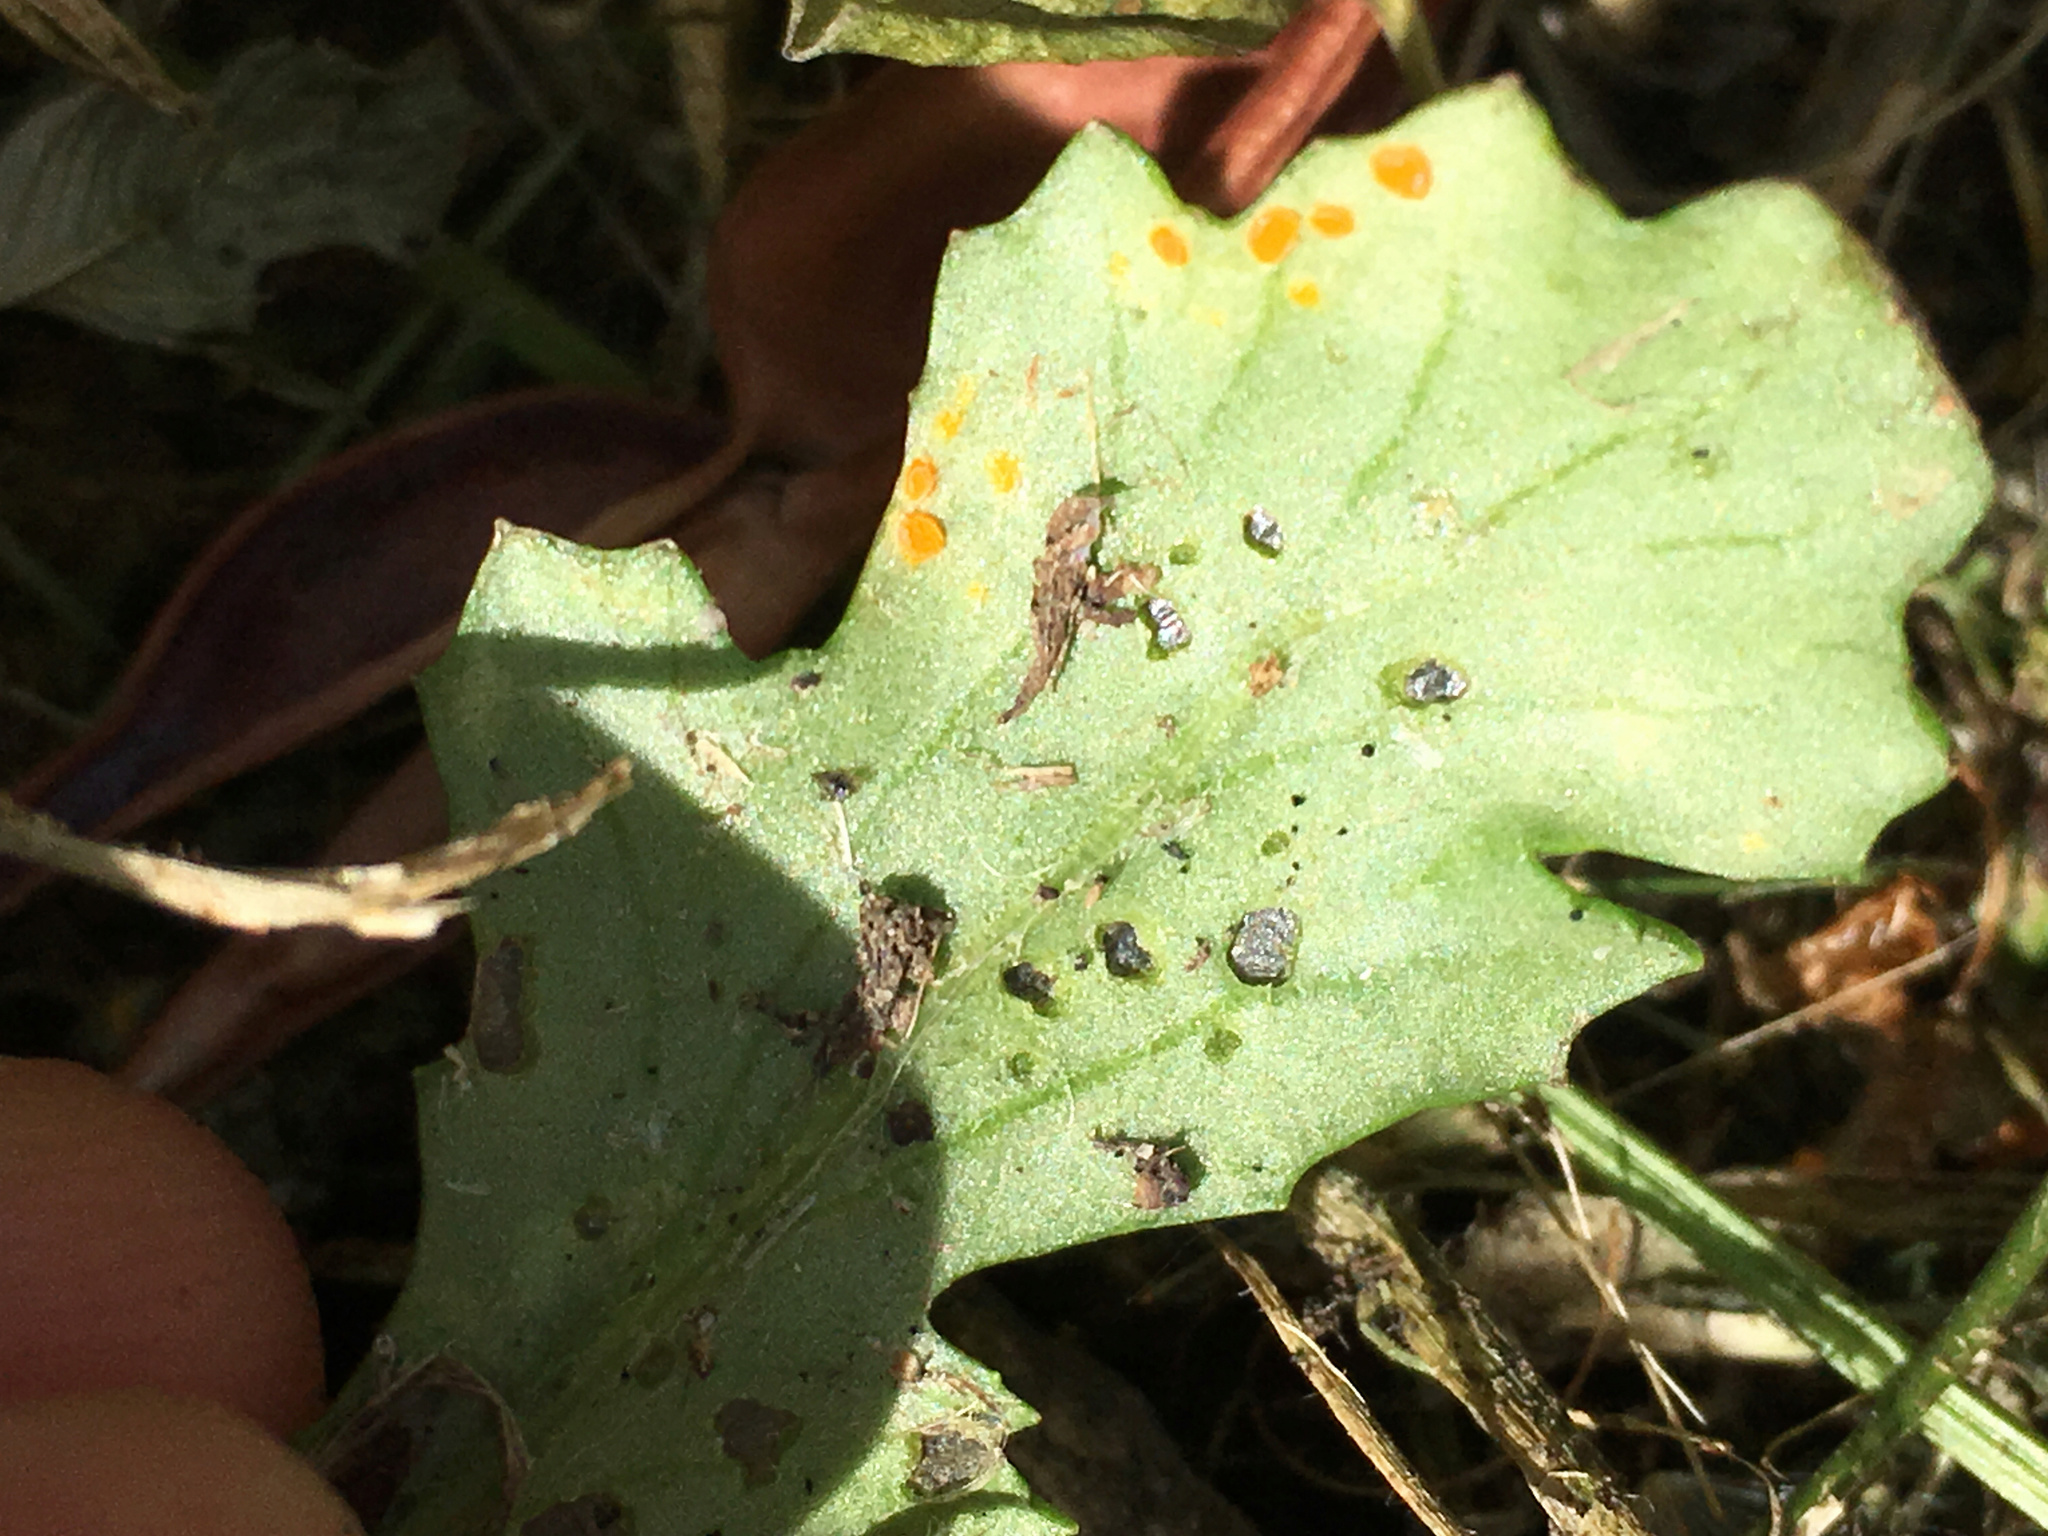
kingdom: Fungi
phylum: Basidiomycota
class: Pucciniomycetes
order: Pucciniales
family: Coleosporiaceae
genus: Coleosporium
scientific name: Coleosporium tussilaginis
